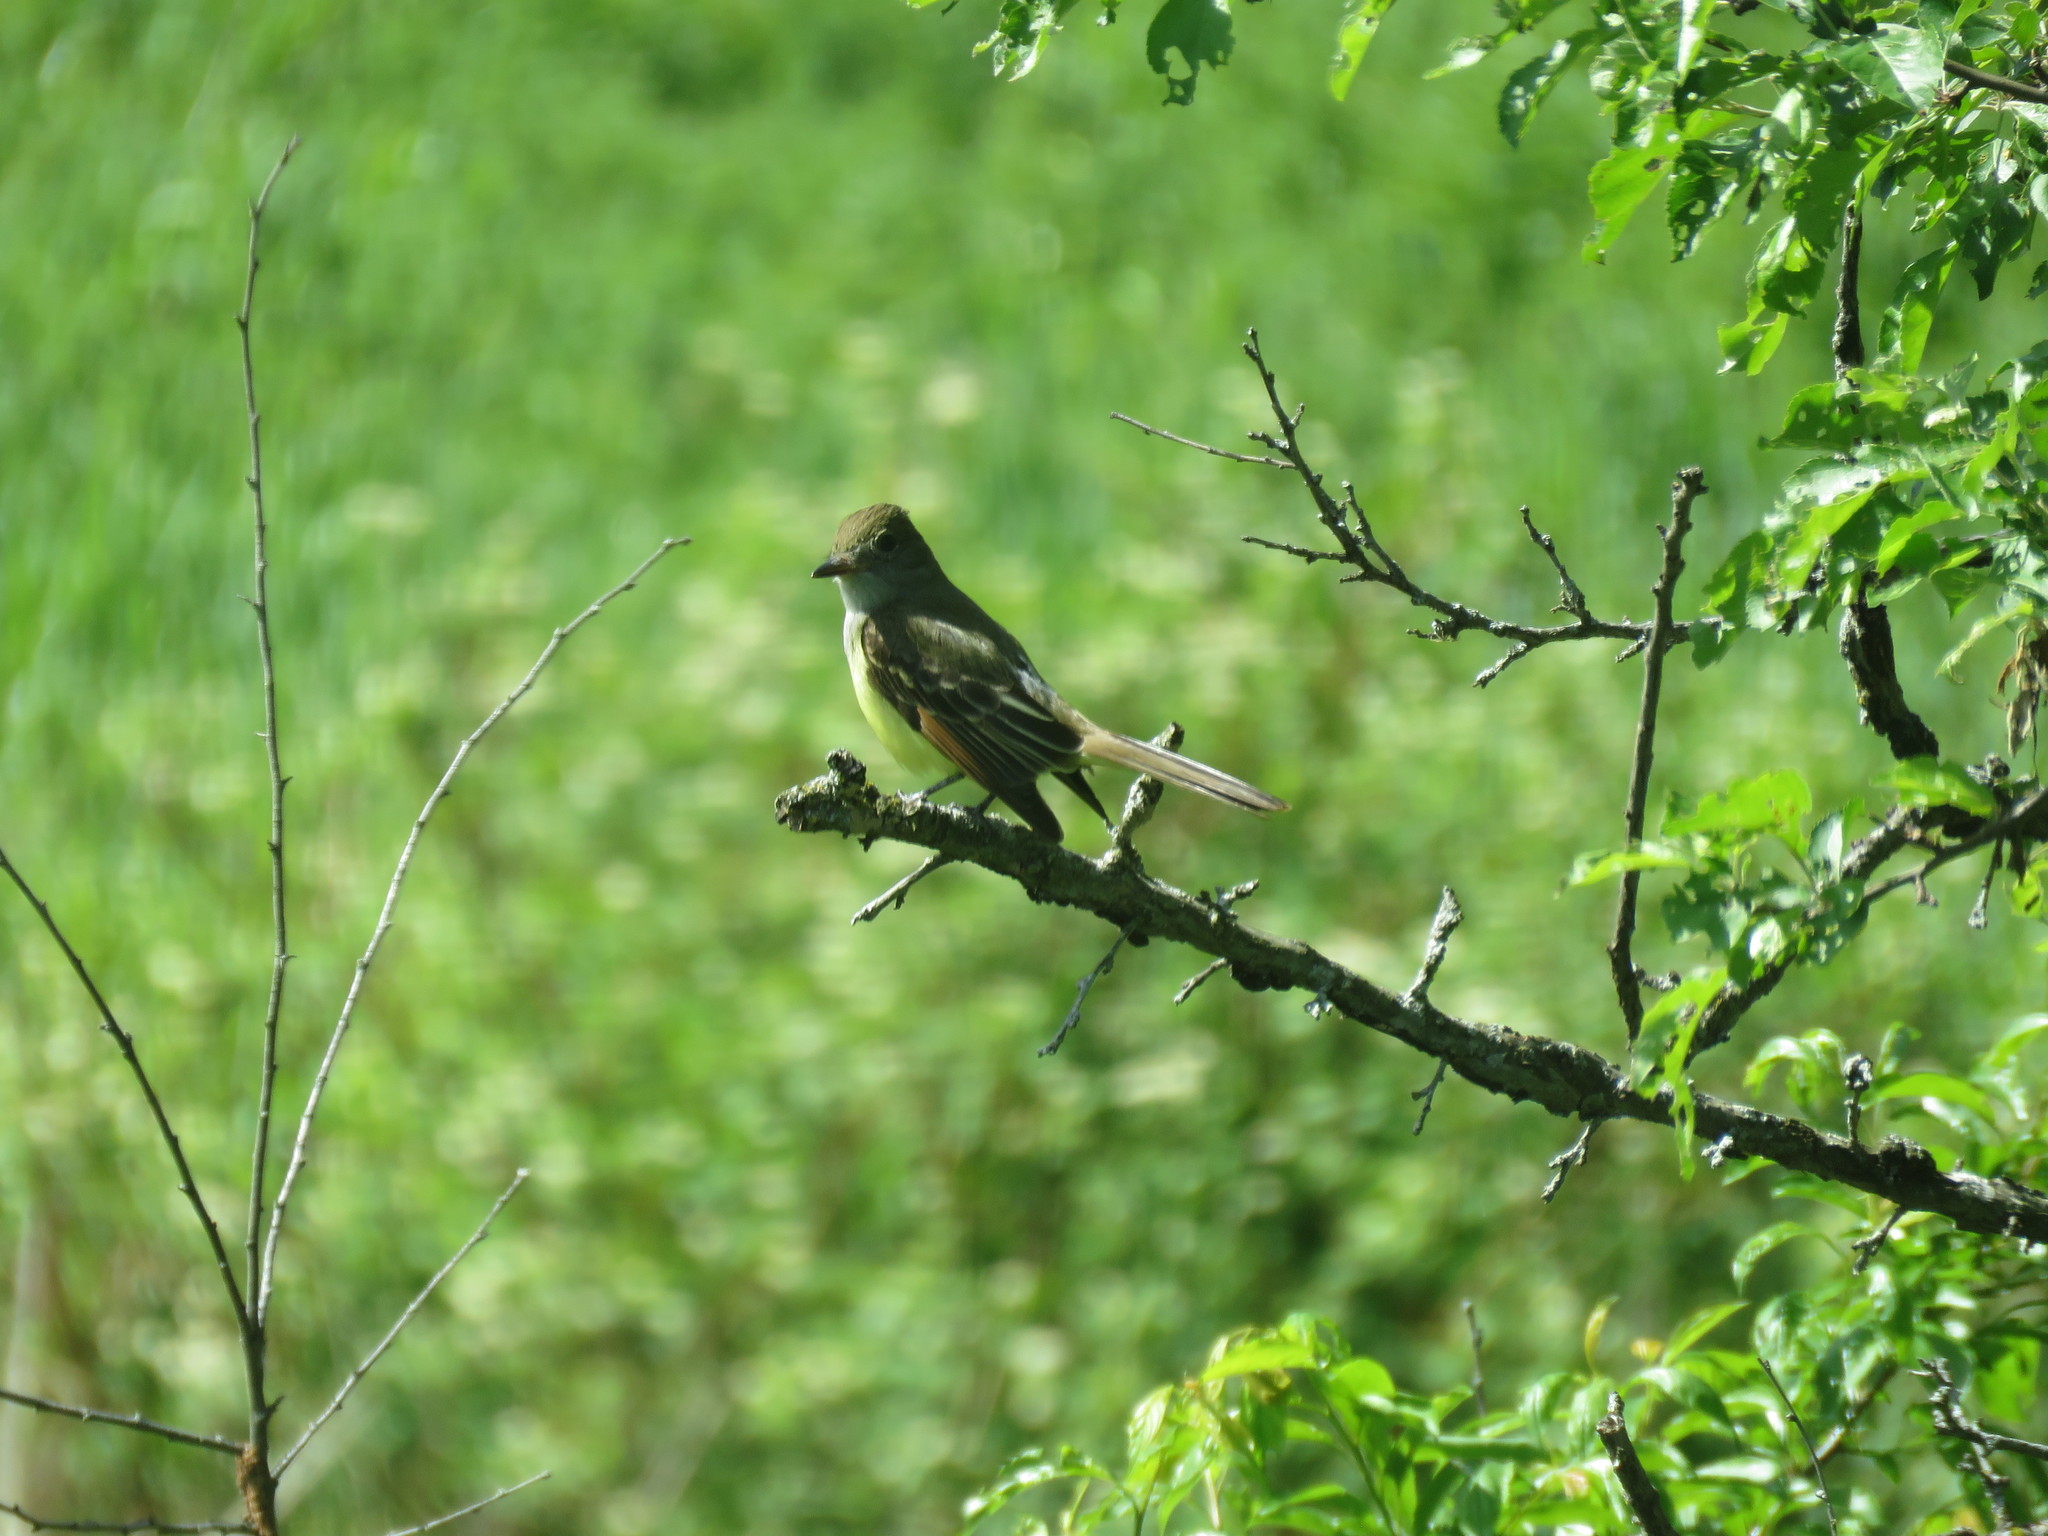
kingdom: Animalia
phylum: Chordata
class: Aves
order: Passeriformes
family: Tyrannidae
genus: Myiarchus
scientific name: Myiarchus crinitus
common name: Great crested flycatcher
